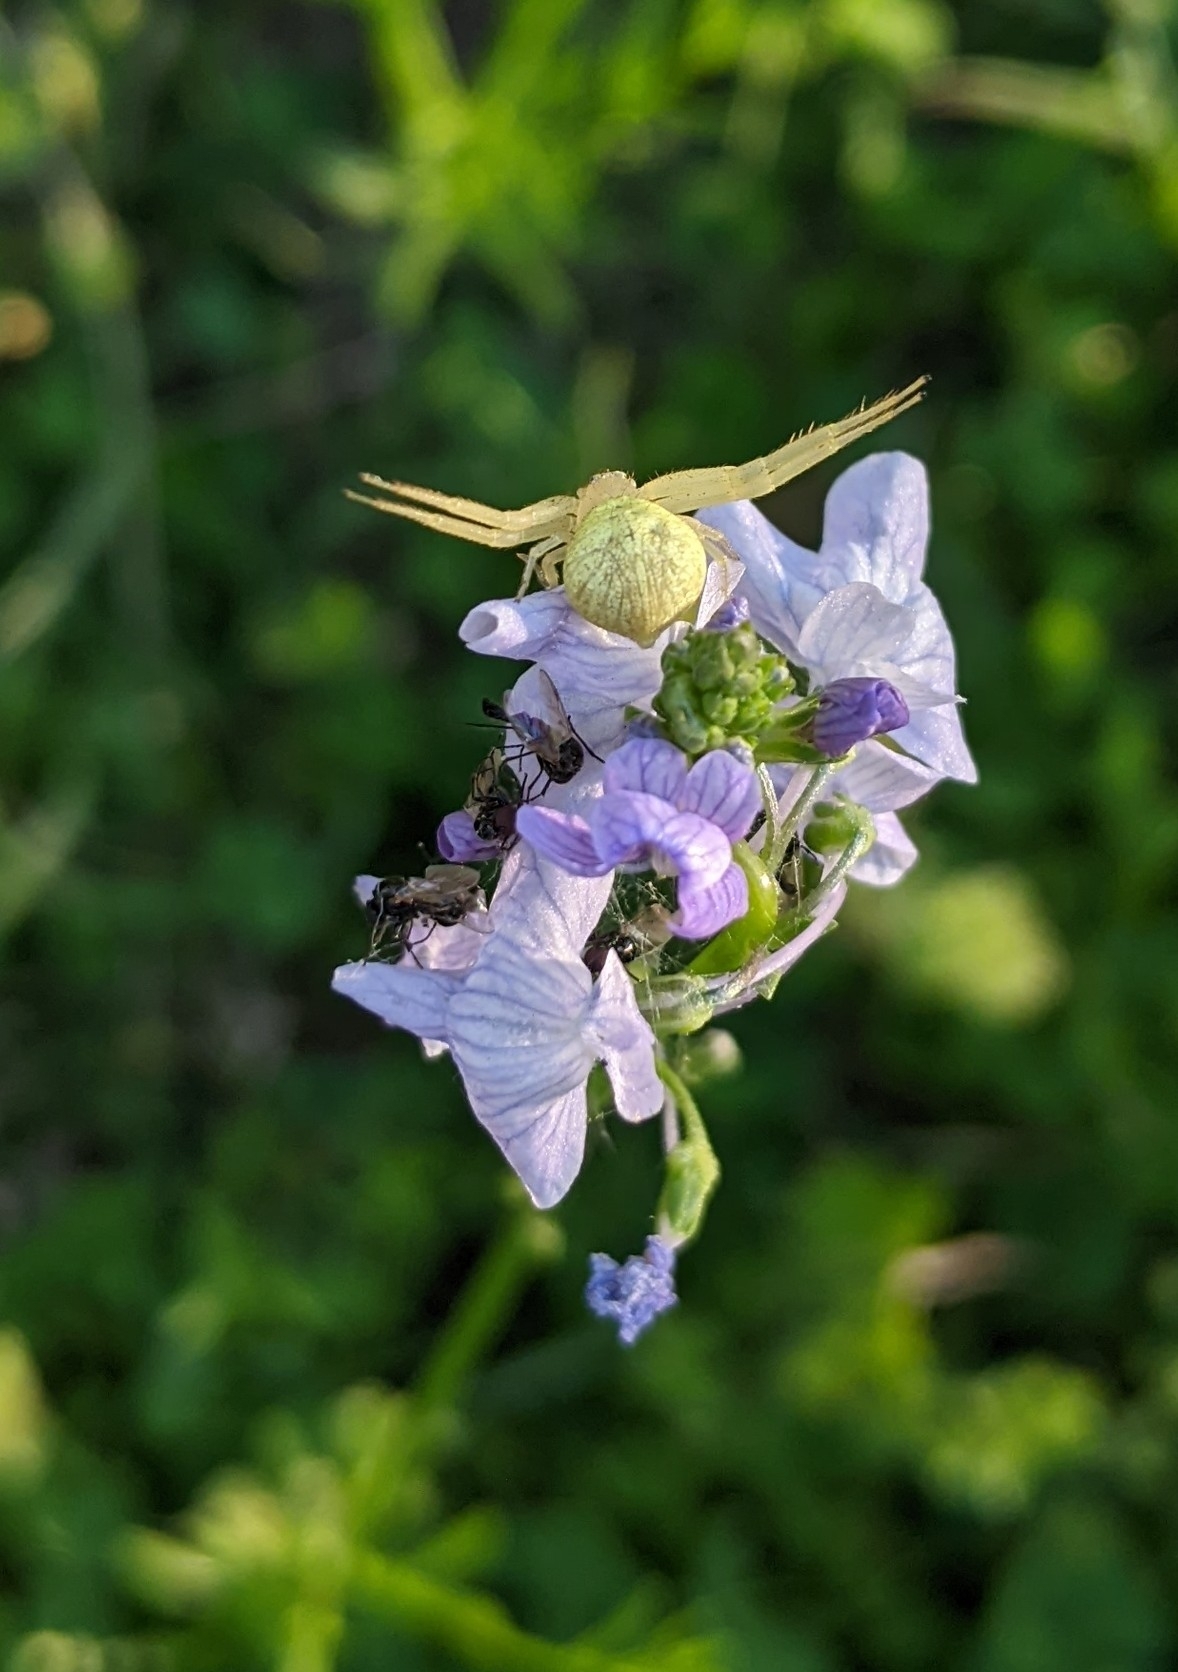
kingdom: Plantae
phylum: Tracheophyta
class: Magnoliopsida
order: Lamiales
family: Plantaginaceae
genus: Nuttallanthus
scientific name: Nuttallanthus texanus
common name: Texas toadflax
